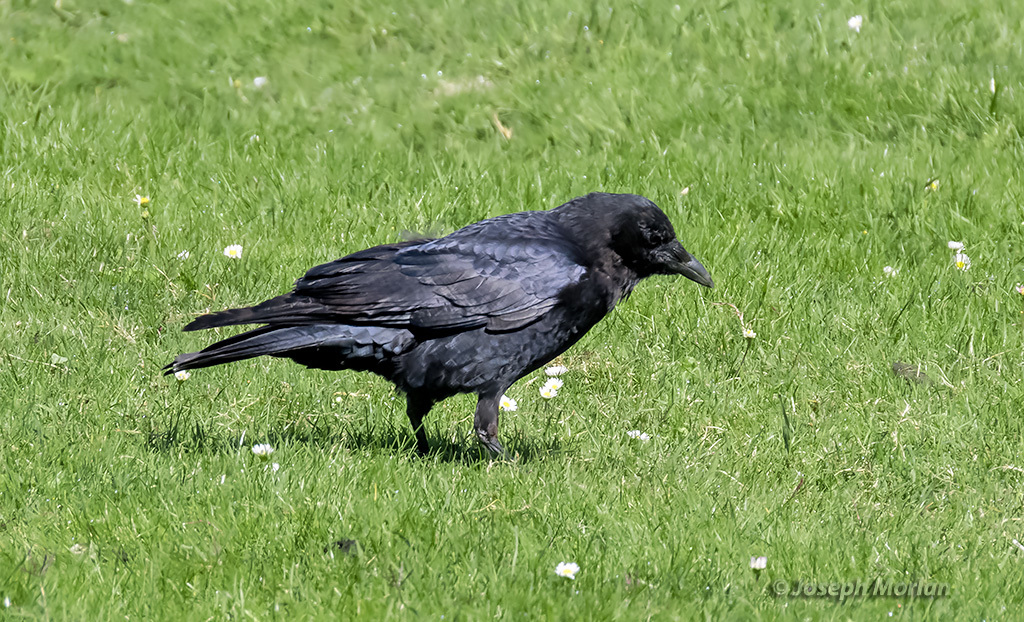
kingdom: Animalia
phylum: Chordata
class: Aves
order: Passeriformes
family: Corvidae
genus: Corvus
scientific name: Corvus brachyrhynchos
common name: American crow
